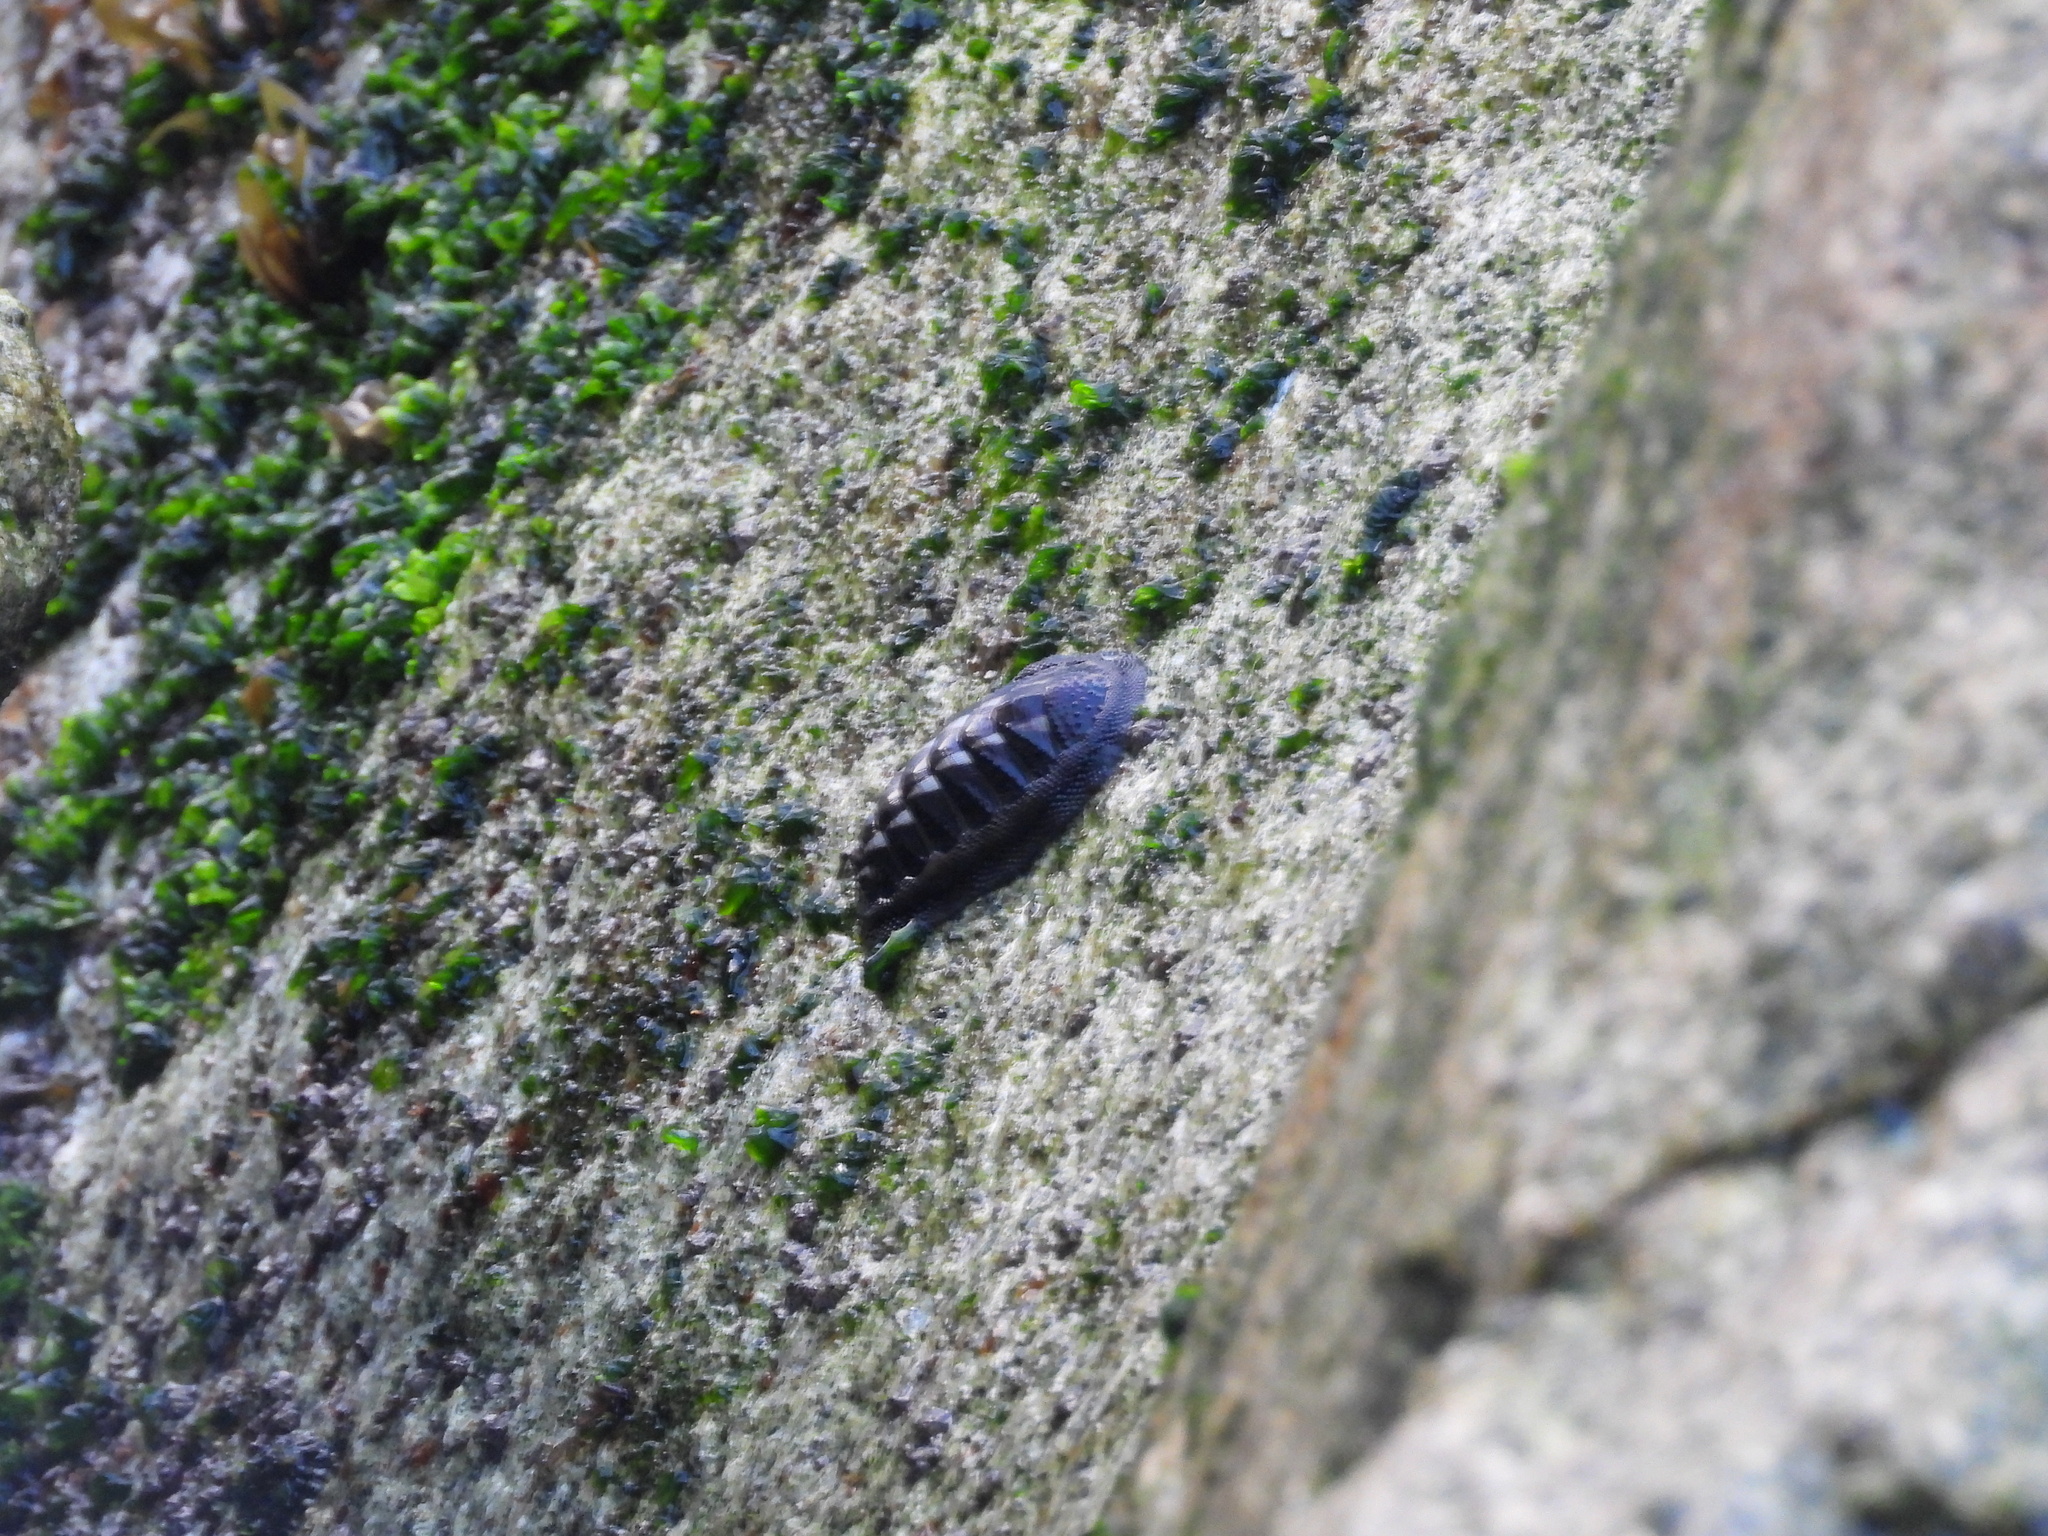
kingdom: Animalia
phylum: Mollusca
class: Polyplacophora
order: Chitonida
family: Chitonidae
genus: Chiton
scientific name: Chiton granosus
